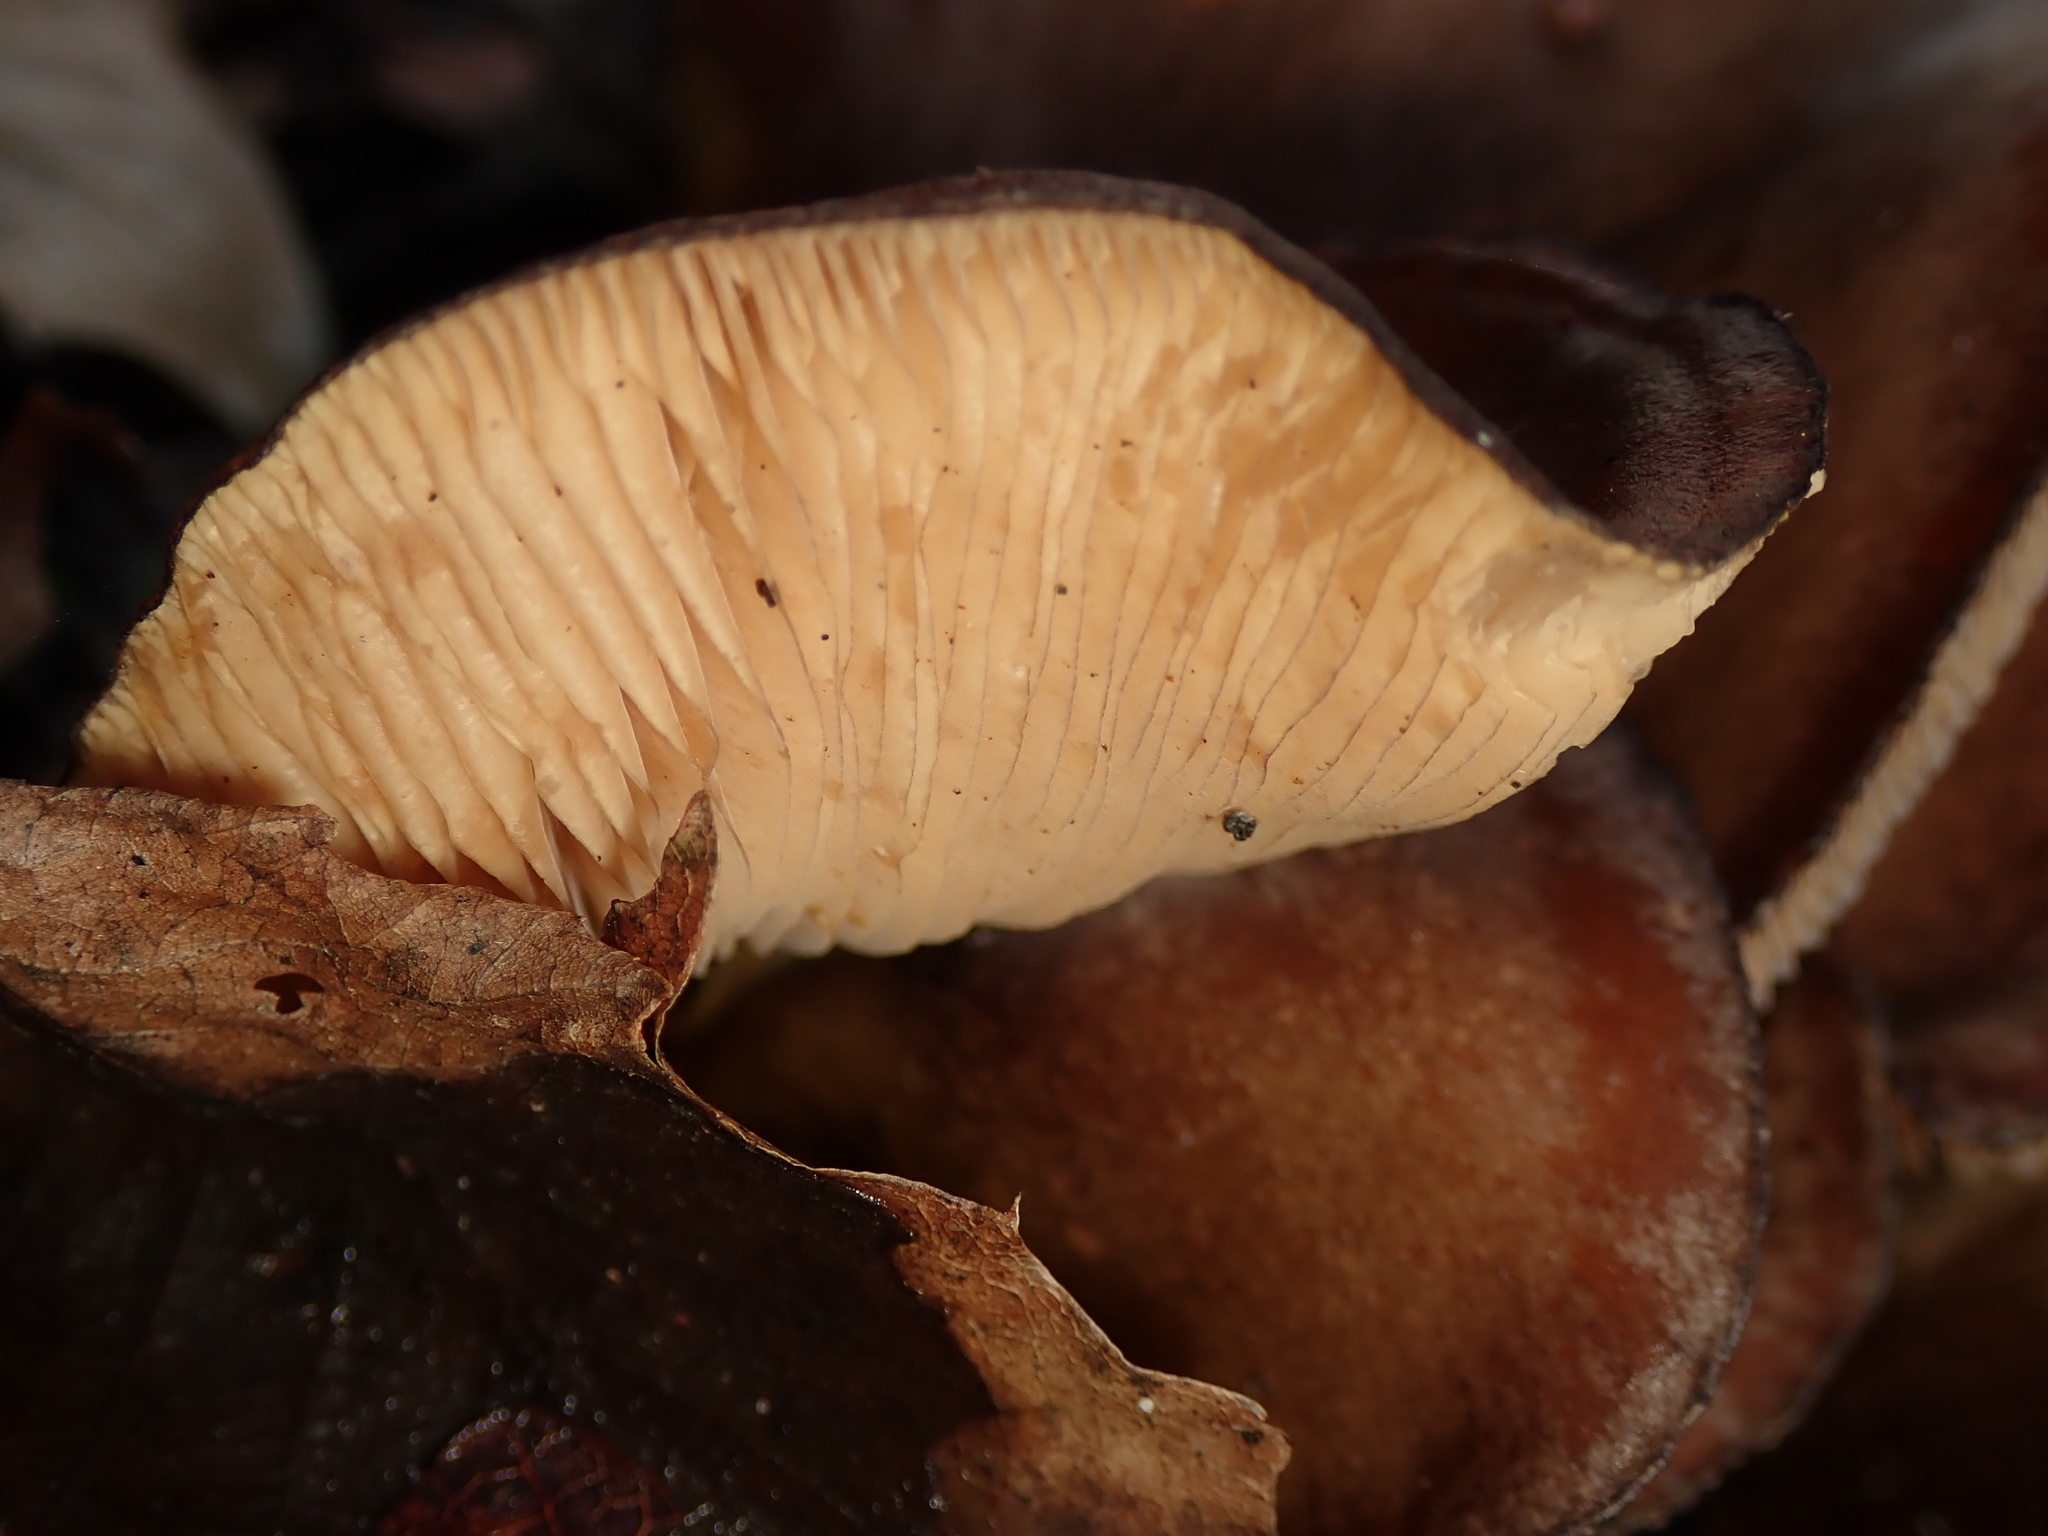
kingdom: Fungi
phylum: Basidiomycota
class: Agaricomycetes
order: Agaricales
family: Pleurotaceae
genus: Pleurotus
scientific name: Pleurotus ostreatus
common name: Oyster mushroom
